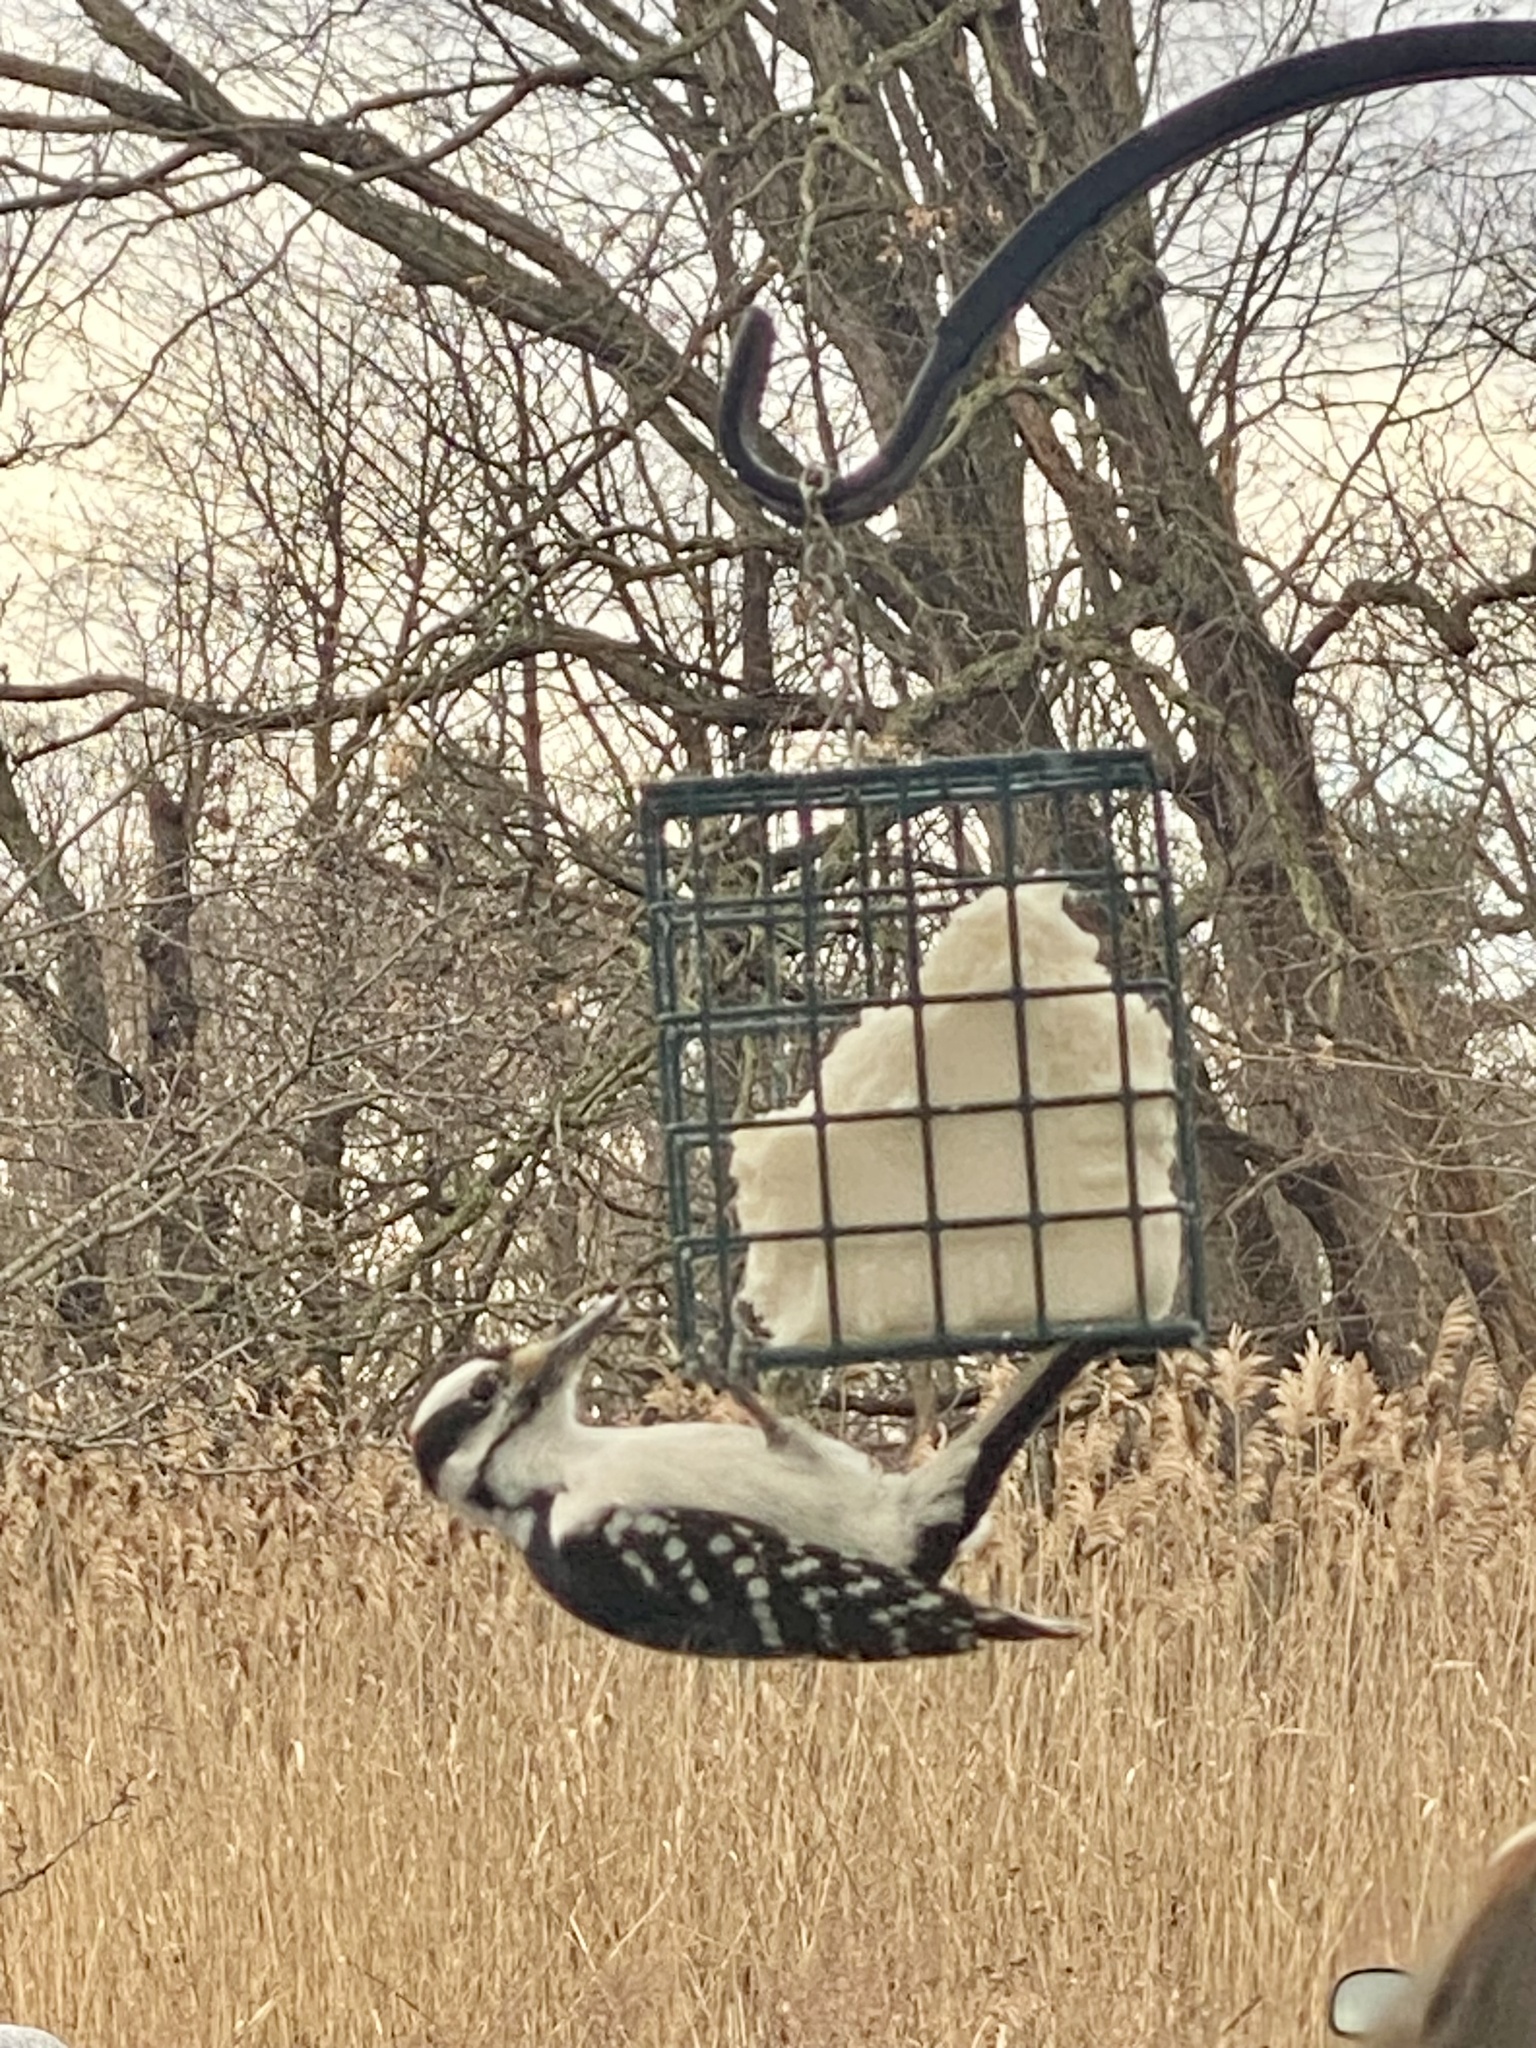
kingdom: Animalia
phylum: Chordata
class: Aves
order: Piciformes
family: Picidae
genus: Leuconotopicus
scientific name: Leuconotopicus villosus
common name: Hairy woodpecker
